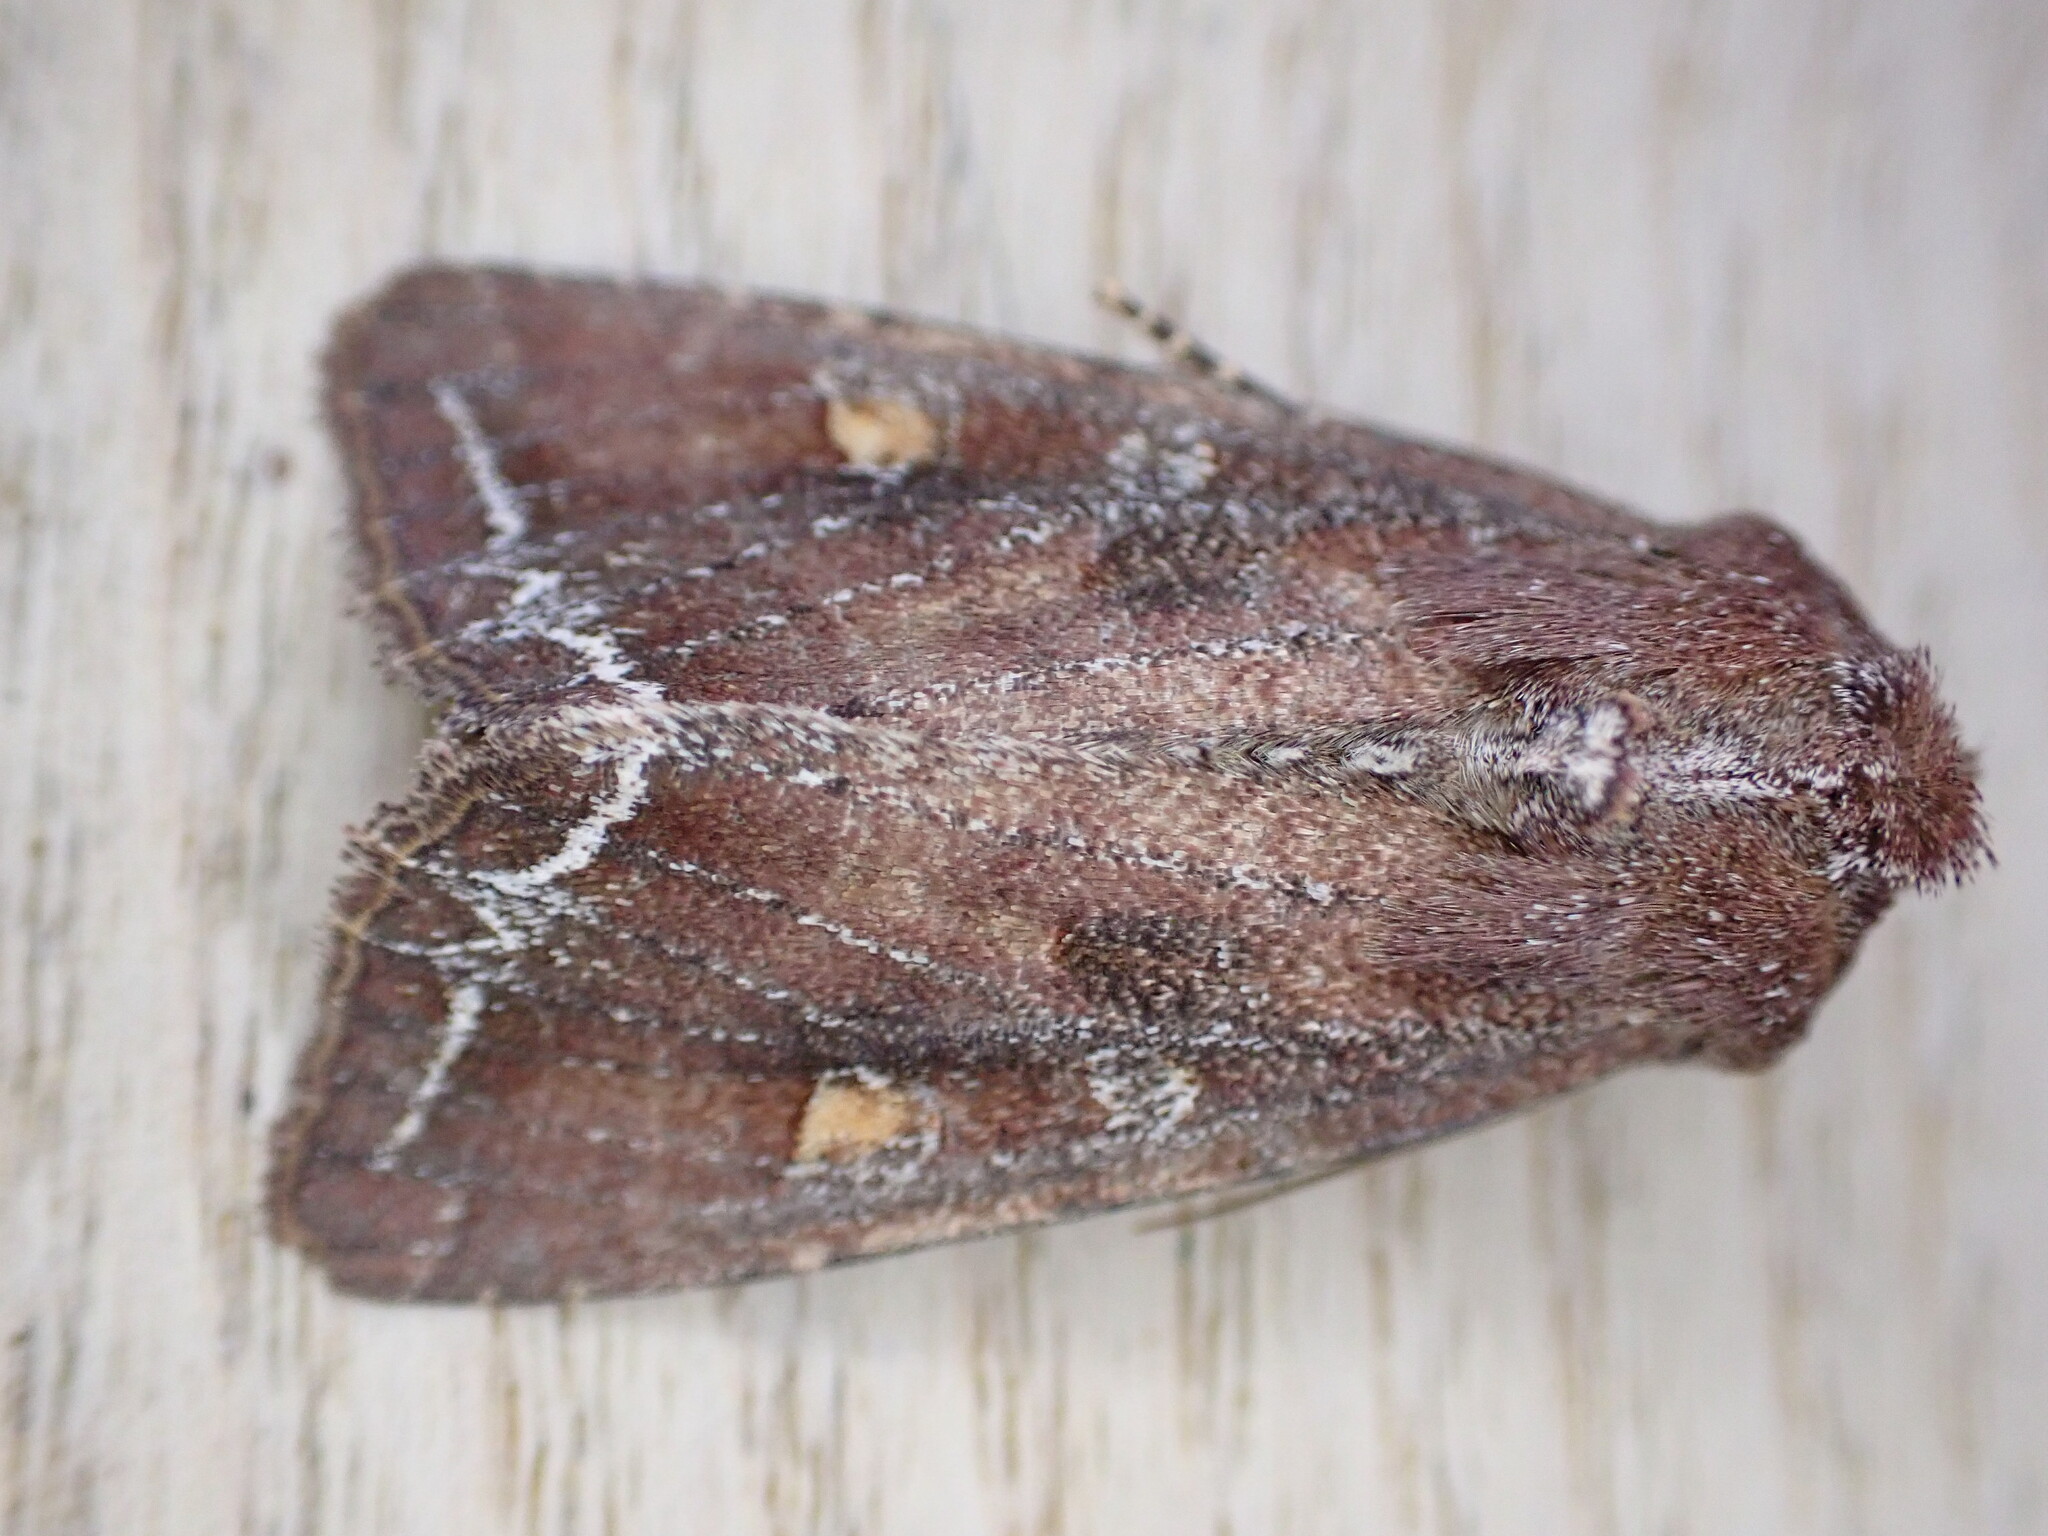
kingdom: Animalia
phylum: Arthropoda
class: Insecta
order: Lepidoptera
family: Noctuidae
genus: Lacanobia
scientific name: Lacanobia oleracea
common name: Bright-line brown-eye
